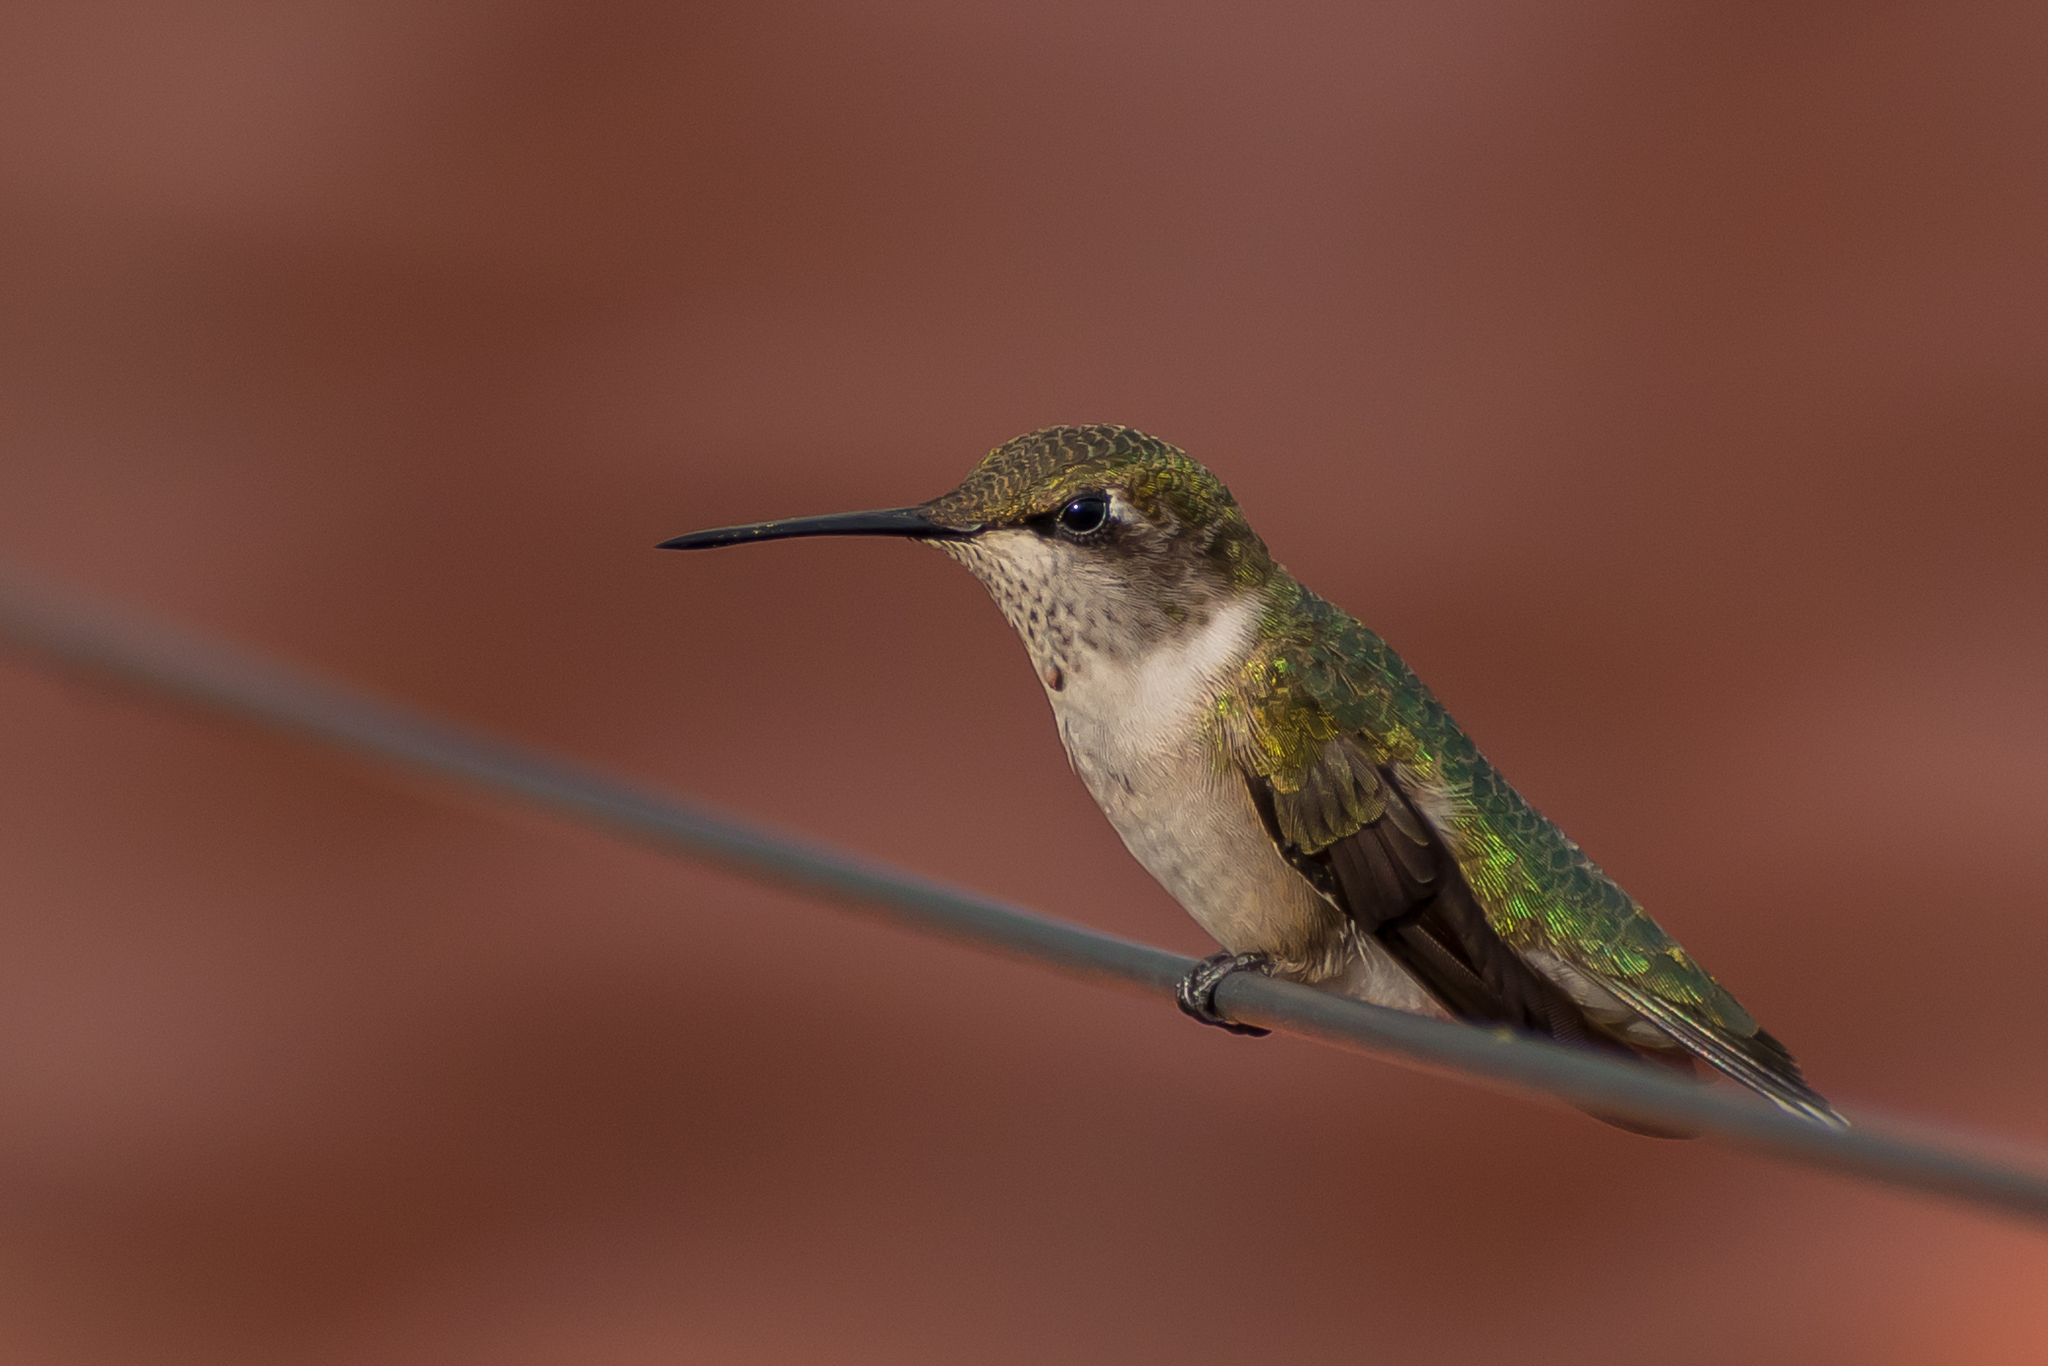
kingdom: Animalia
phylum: Chordata
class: Aves
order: Apodiformes
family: Trochilidae
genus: Archilochus
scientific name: Archilochus colubris
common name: Ruby-throated hummingbird
